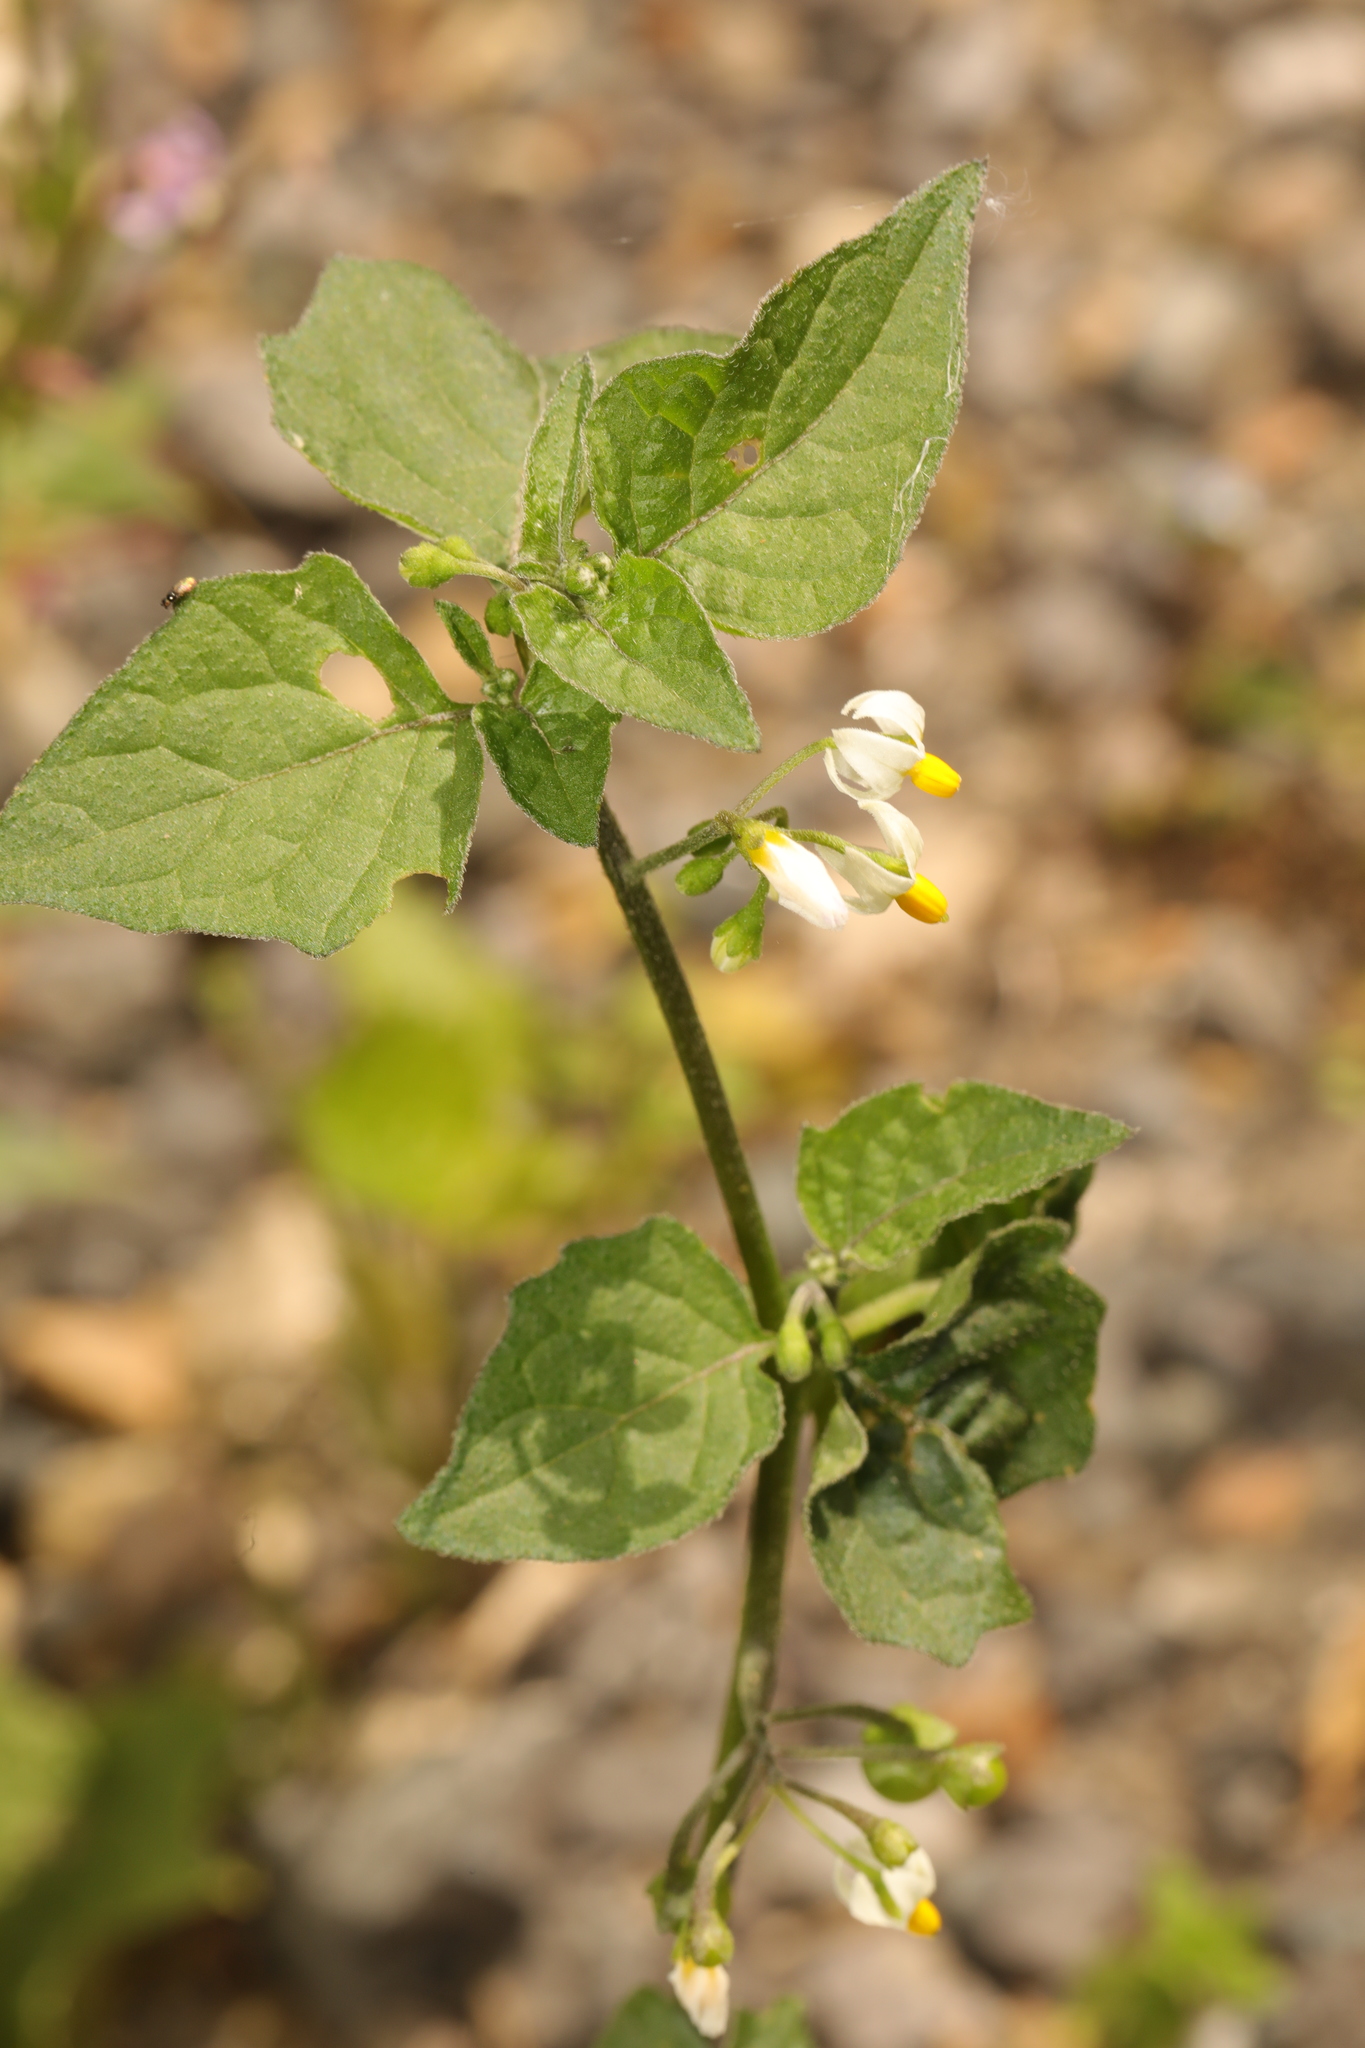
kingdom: Plantae
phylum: Tracheophyta
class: Magnoliopsida
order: Solanales
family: Solanaceae
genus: Solanum
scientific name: Solanum nigrum
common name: Black nightshade
